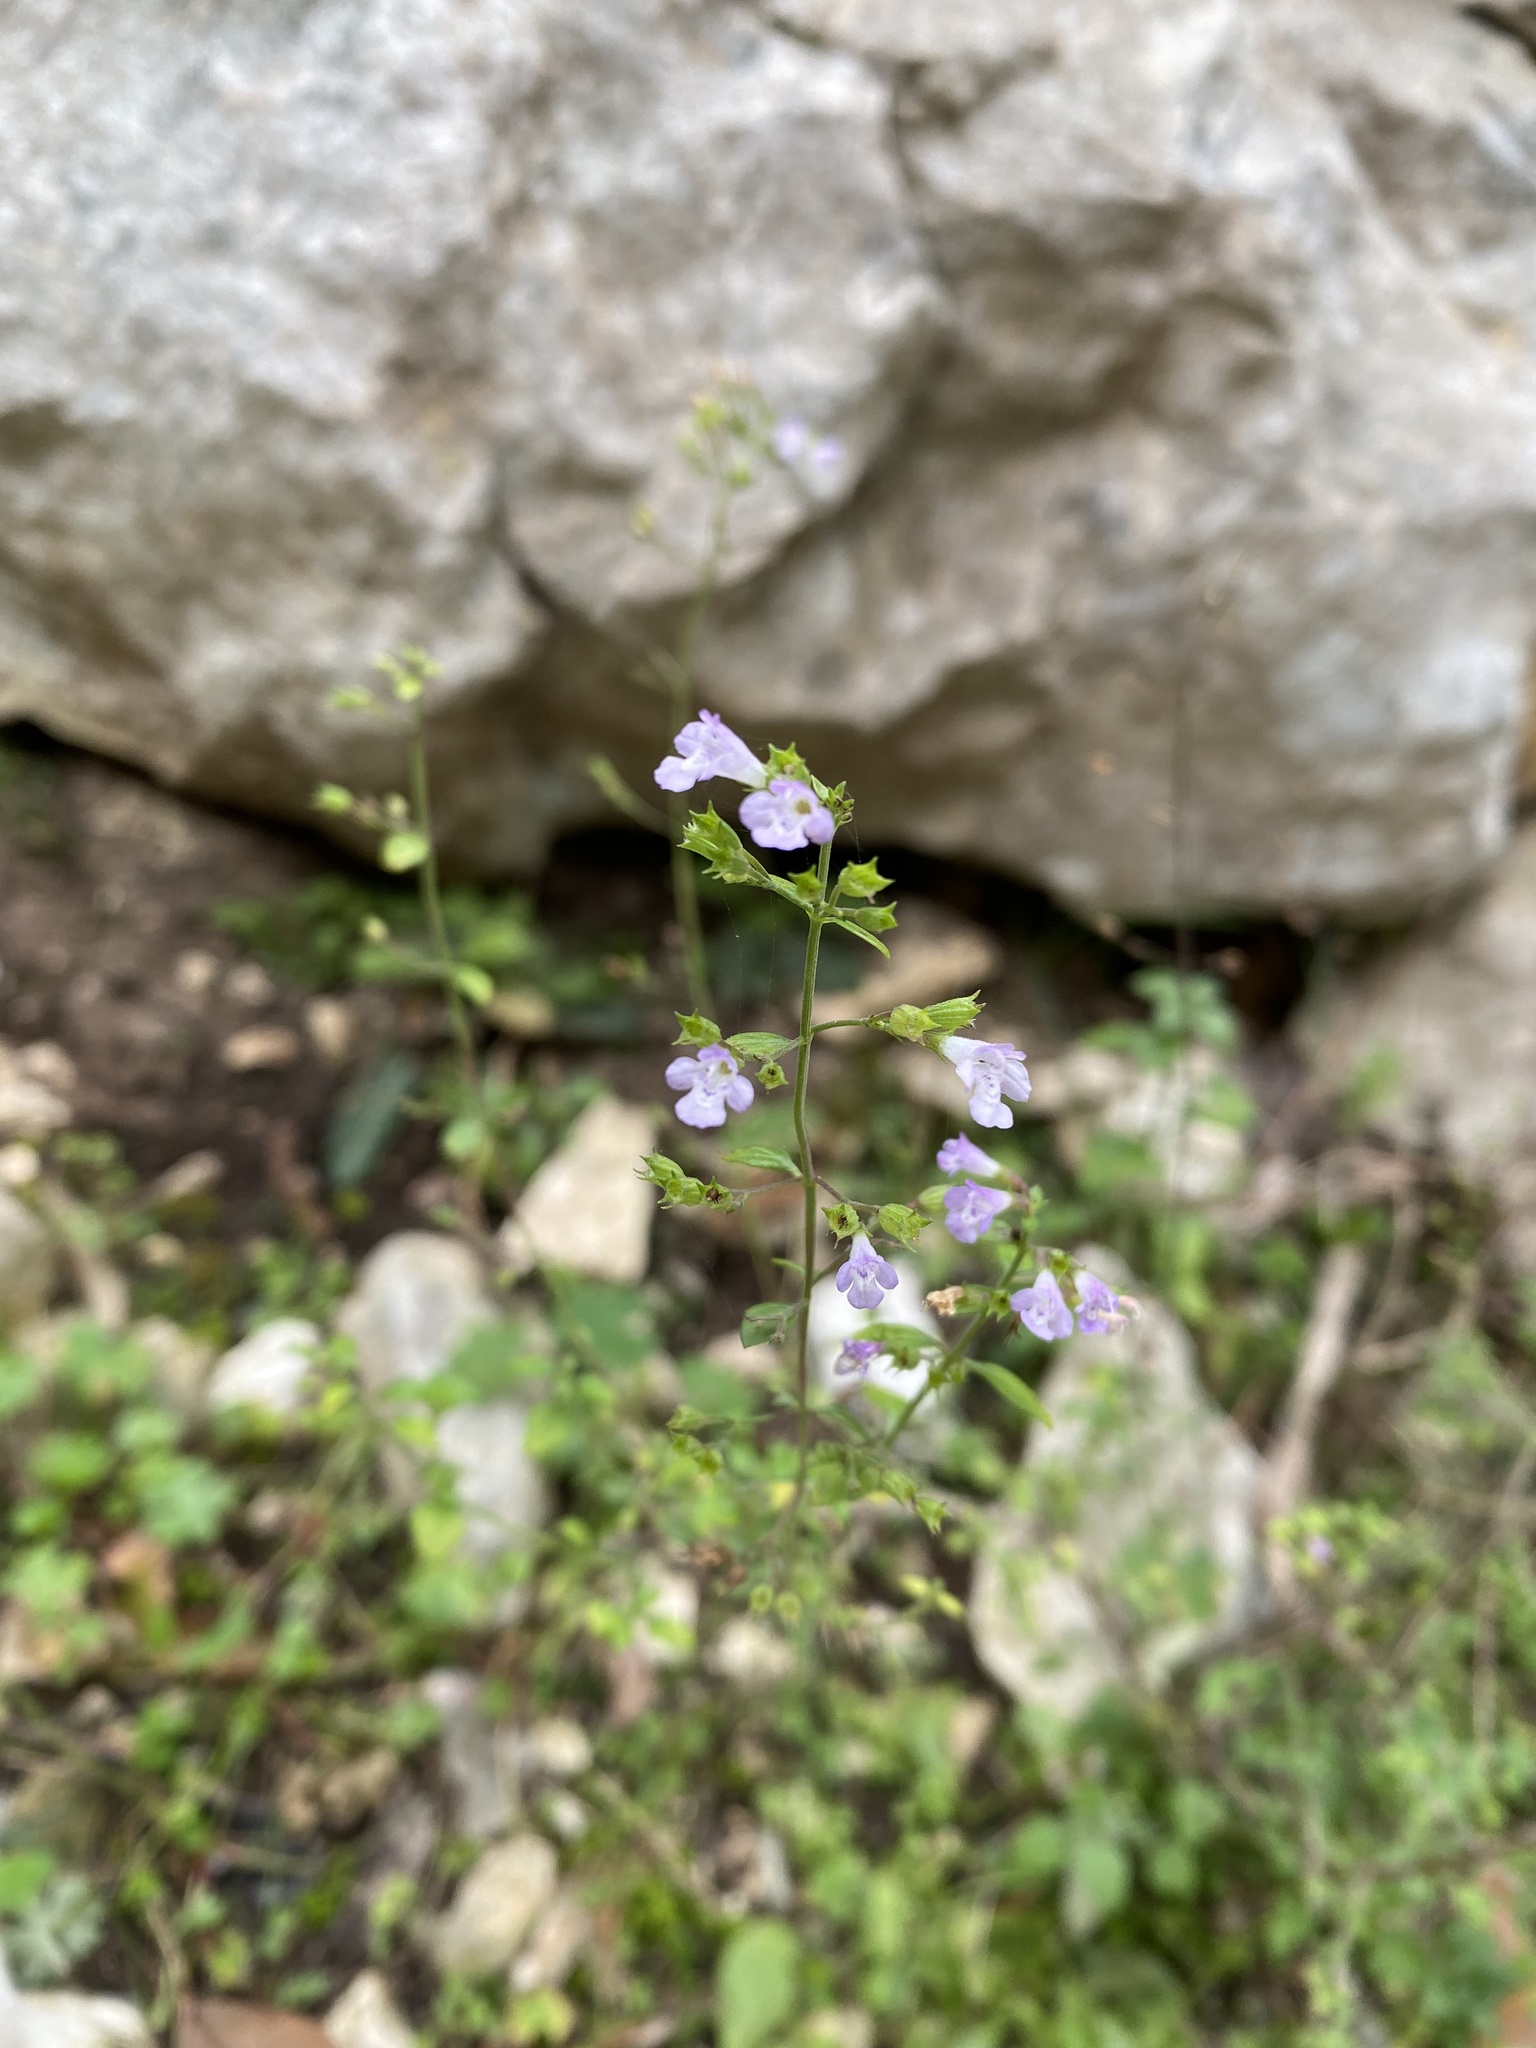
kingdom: Plantae
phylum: Tracheophyta
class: Magnoliopsida
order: Lamiales
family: Lamiaceae
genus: Clinopodium
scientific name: Clinopodium nepeta
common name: Lesser calamint
